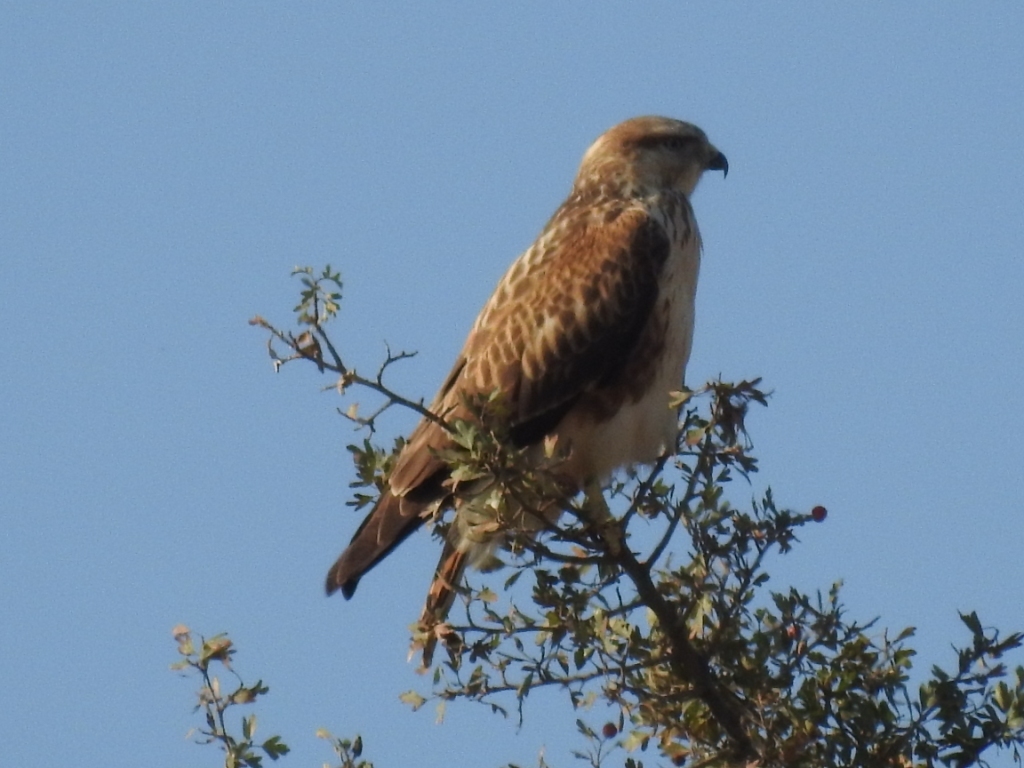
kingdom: Animalia
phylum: Chordata
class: Aves
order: Accipitriformes
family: Accipitridae
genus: Buteo
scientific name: Buteo rufinus
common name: Long-legged buzzard
